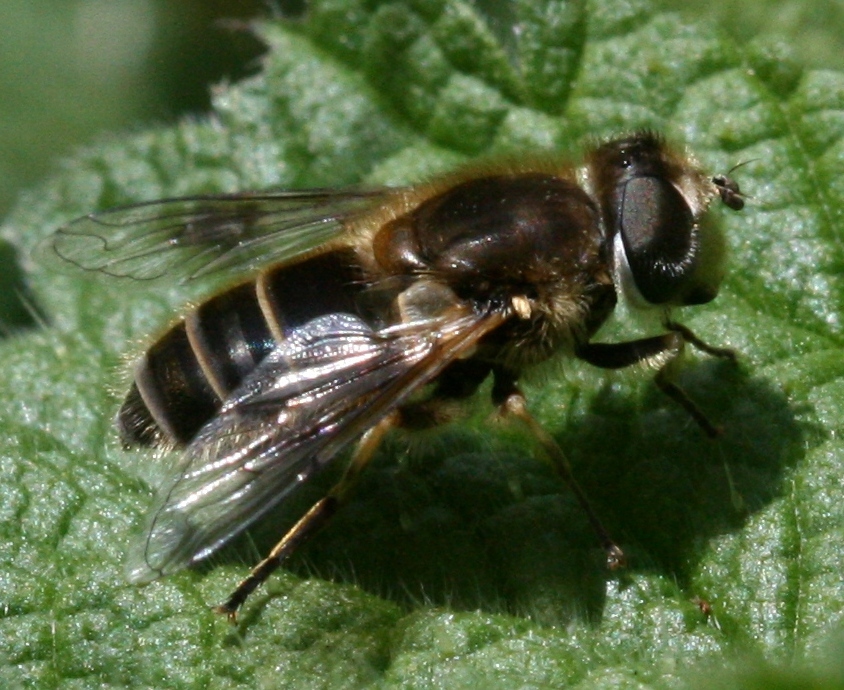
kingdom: Animalia
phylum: Arthropoda
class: Insecta
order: Diptera
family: Syrphidae
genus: Eristalis
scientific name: Eristalis arbustorum
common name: Hover fly
